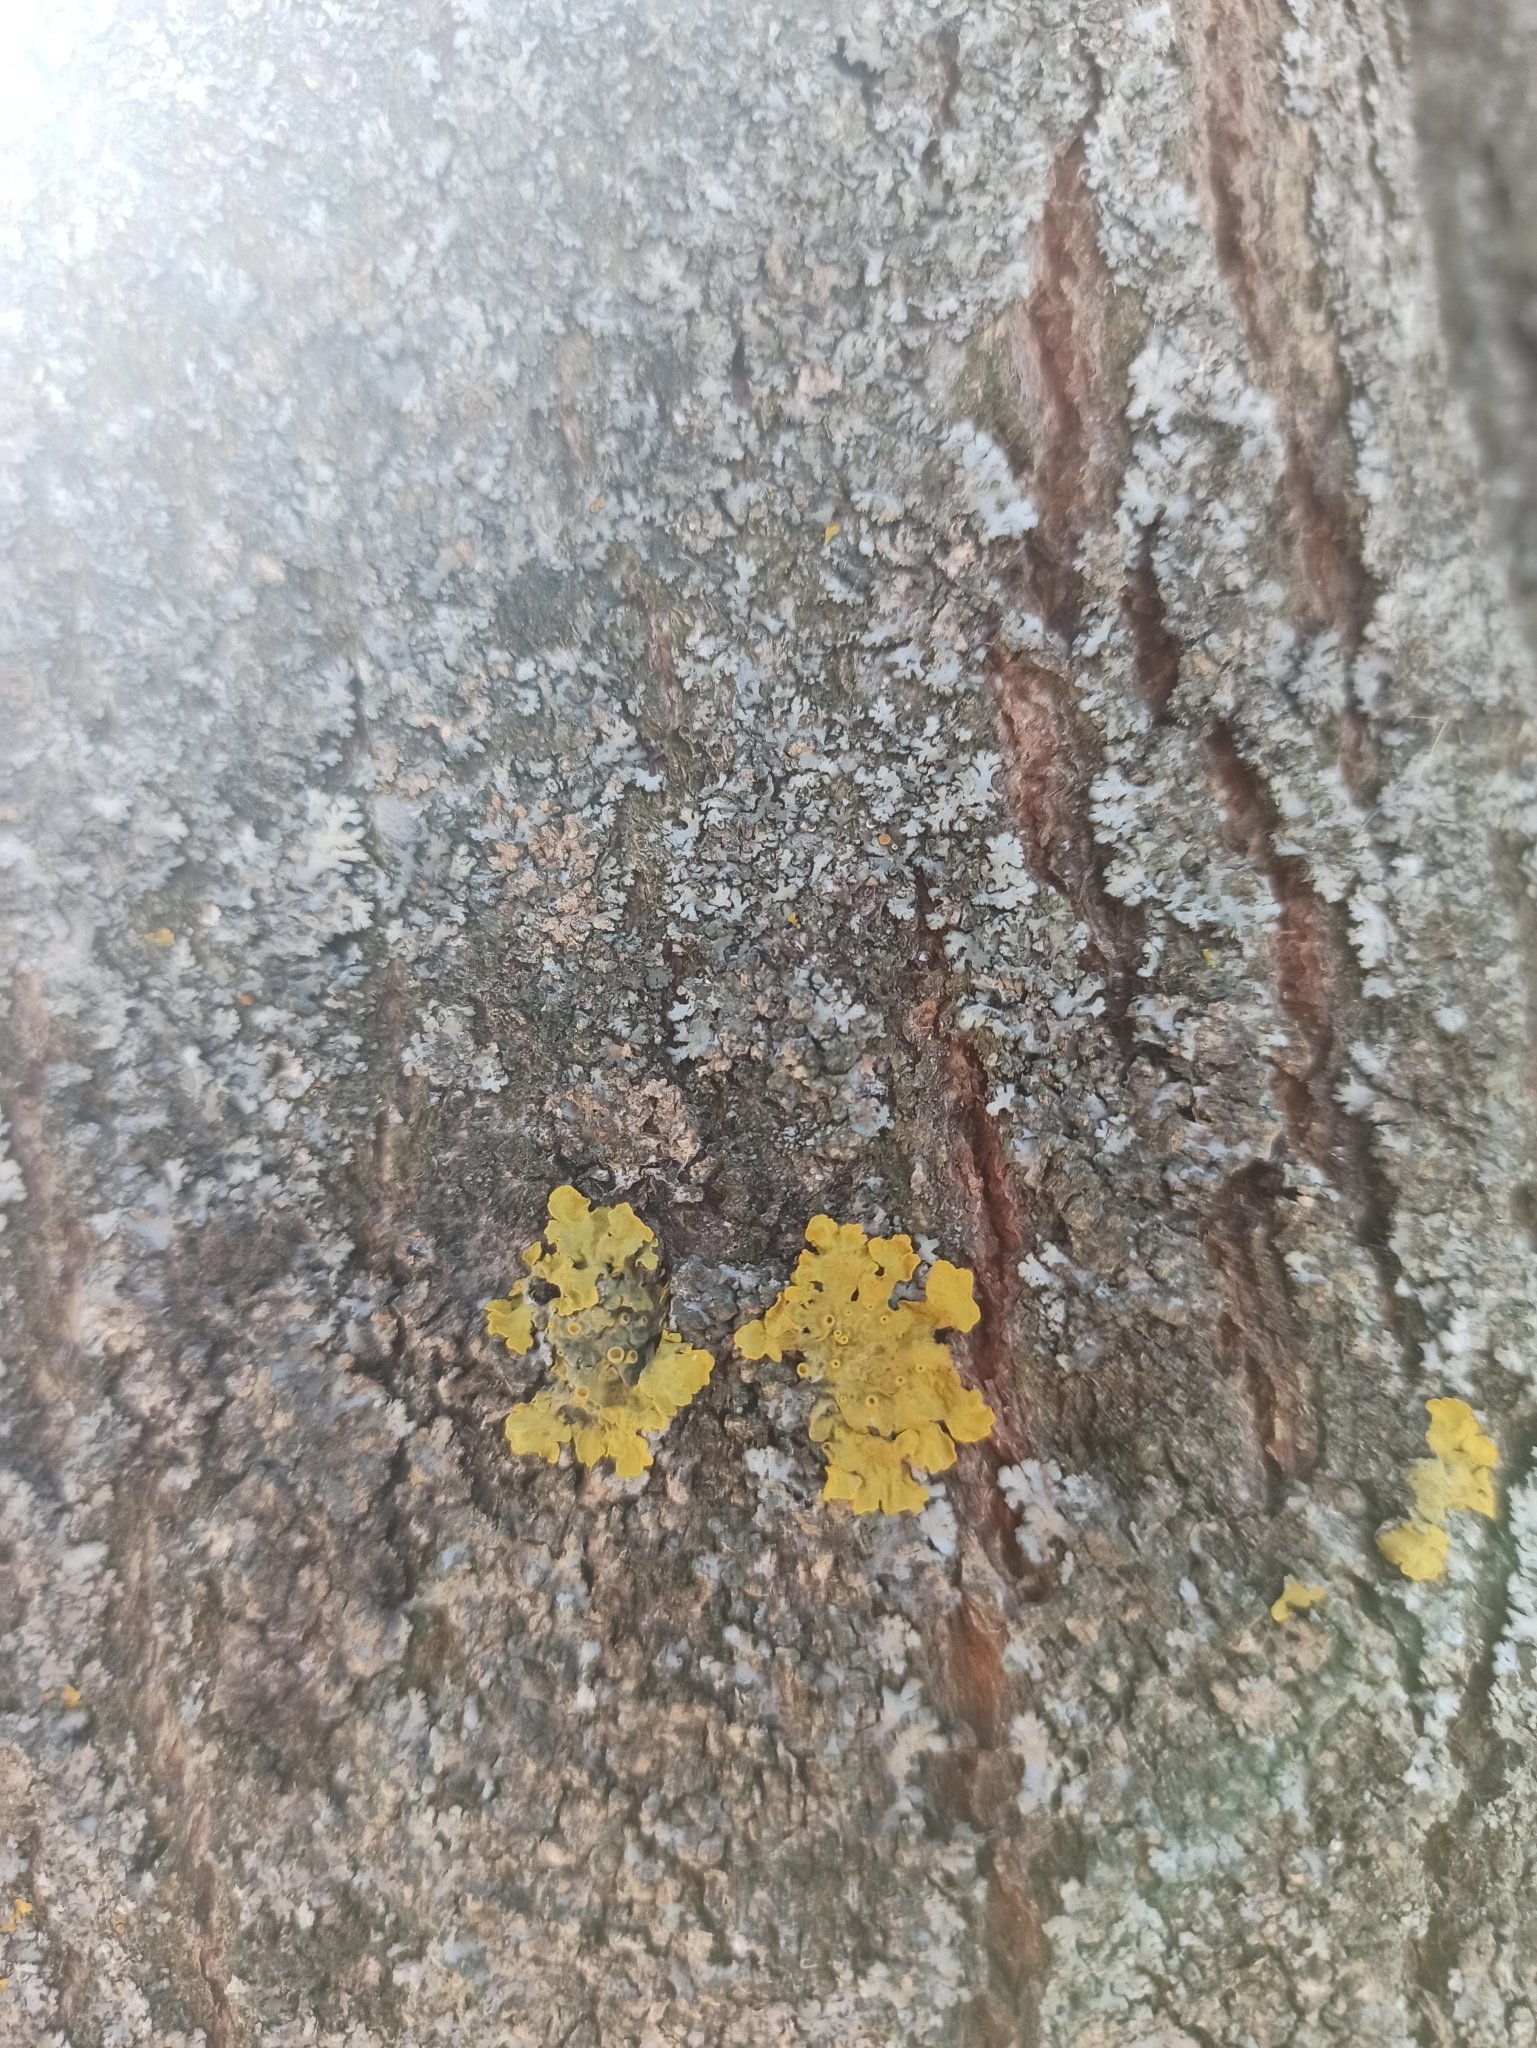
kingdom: Fungi
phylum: Ascomycota
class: Lecanoromycetes
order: Teloschistales
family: Teloschistaceae
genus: Xanthoria
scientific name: Xanthoria parietina
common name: Common orange lichen
